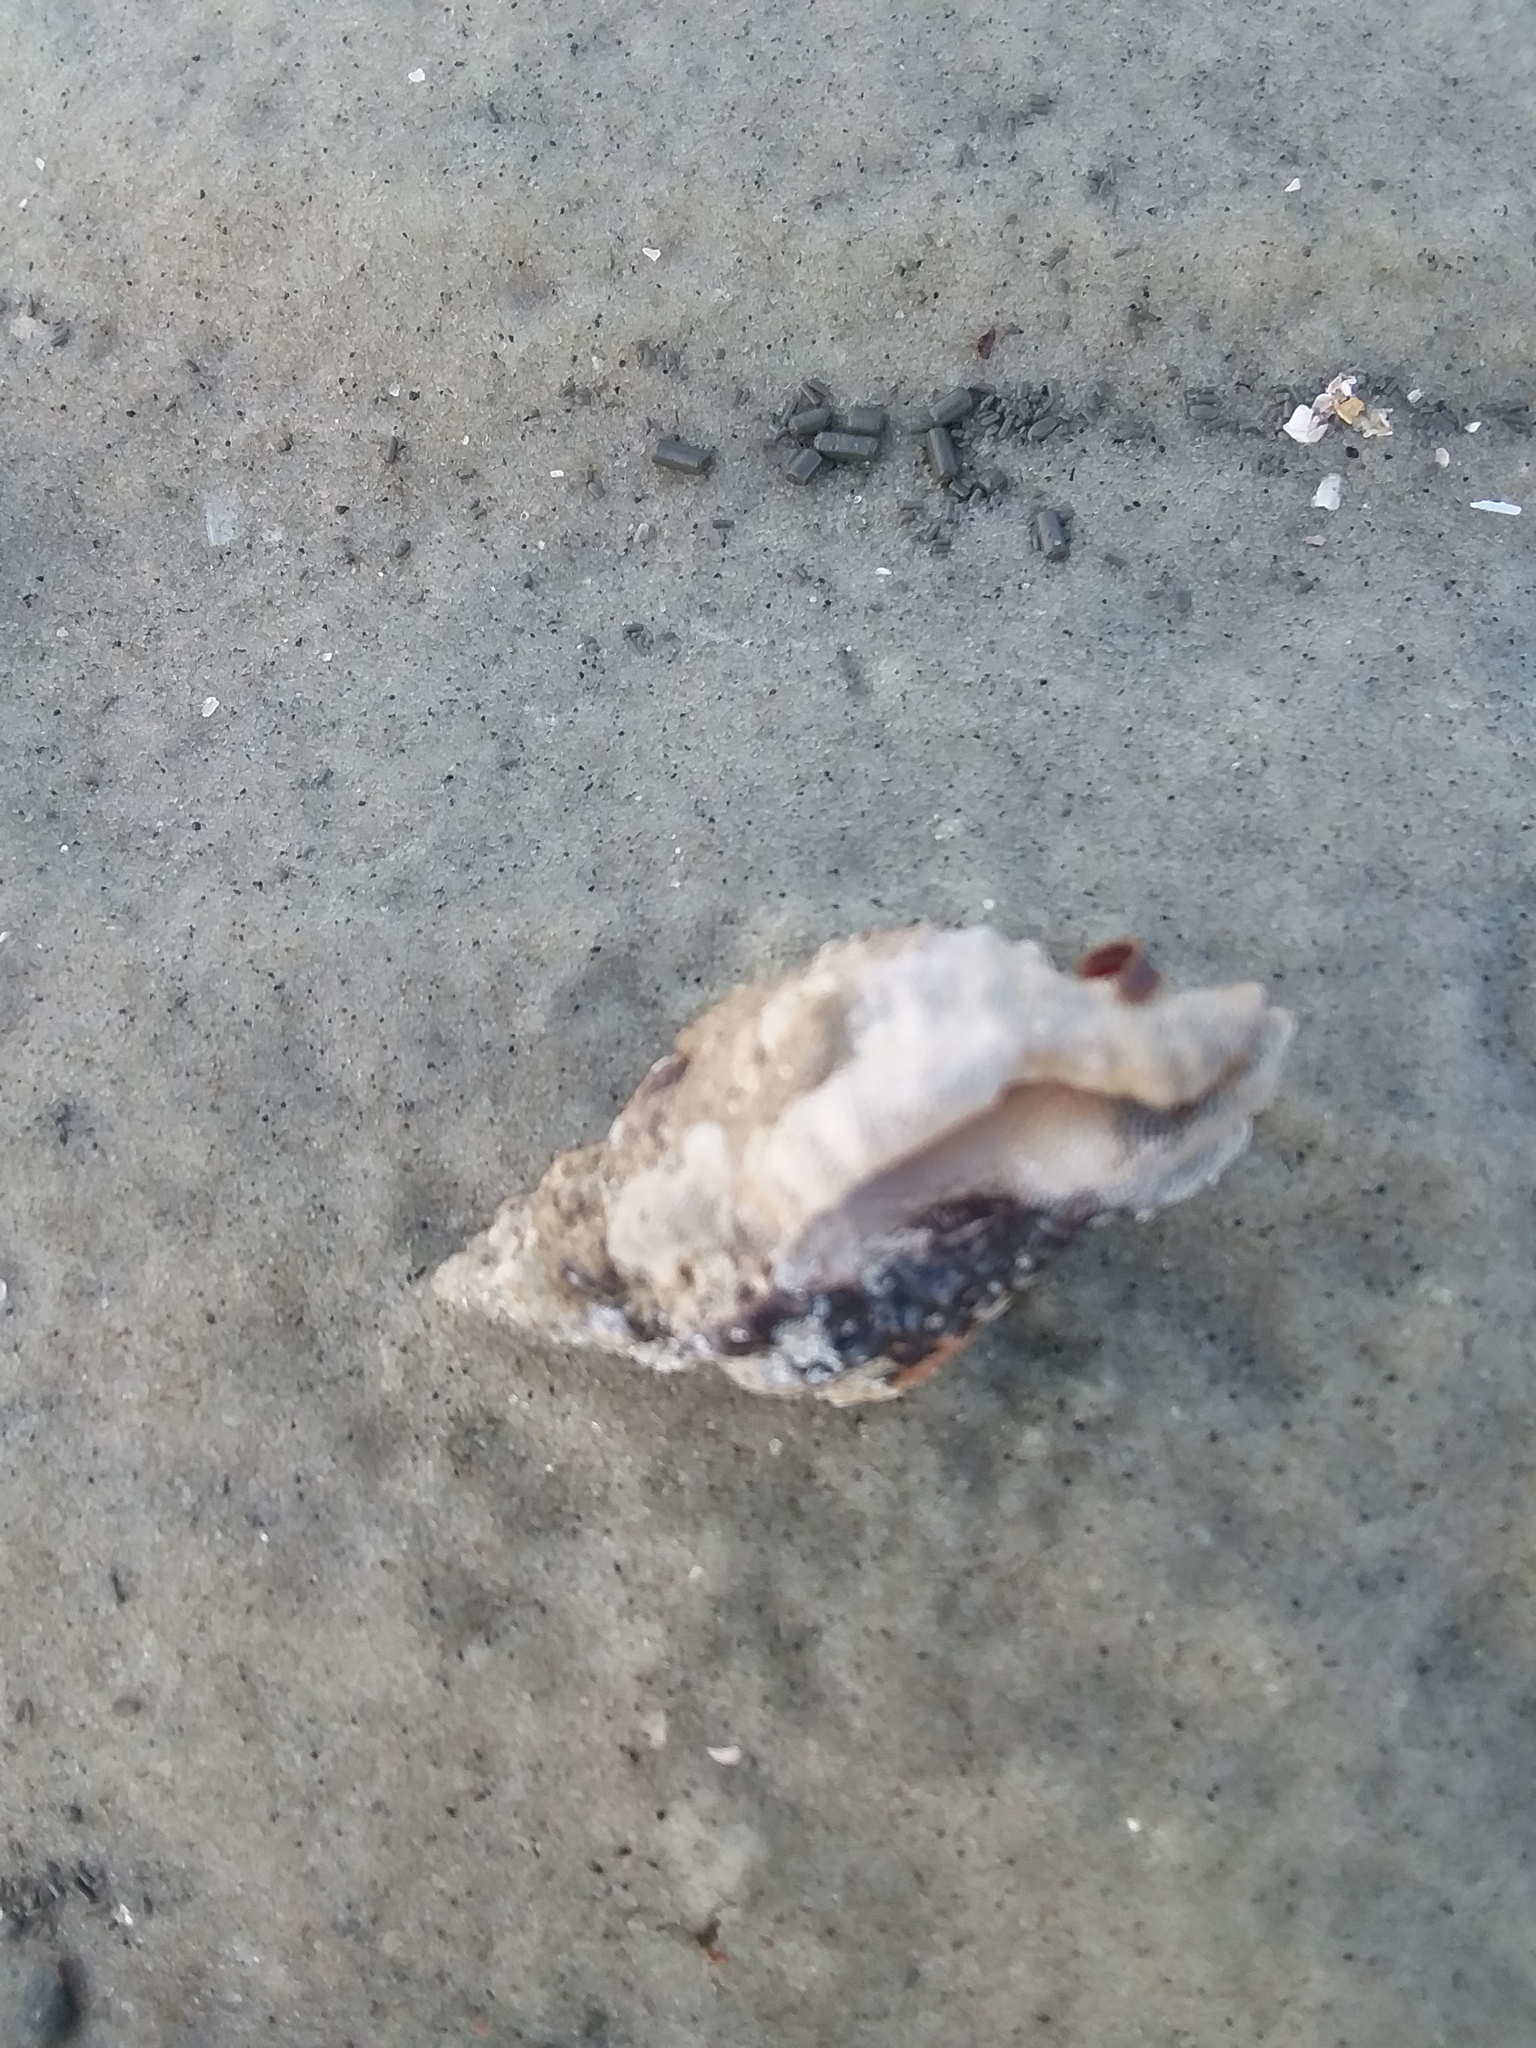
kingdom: Animalia
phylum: Arthropoda
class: Malacostraca
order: Decapoda
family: Diogenidae
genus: Clibanarius
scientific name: Clibanarius vittatus
